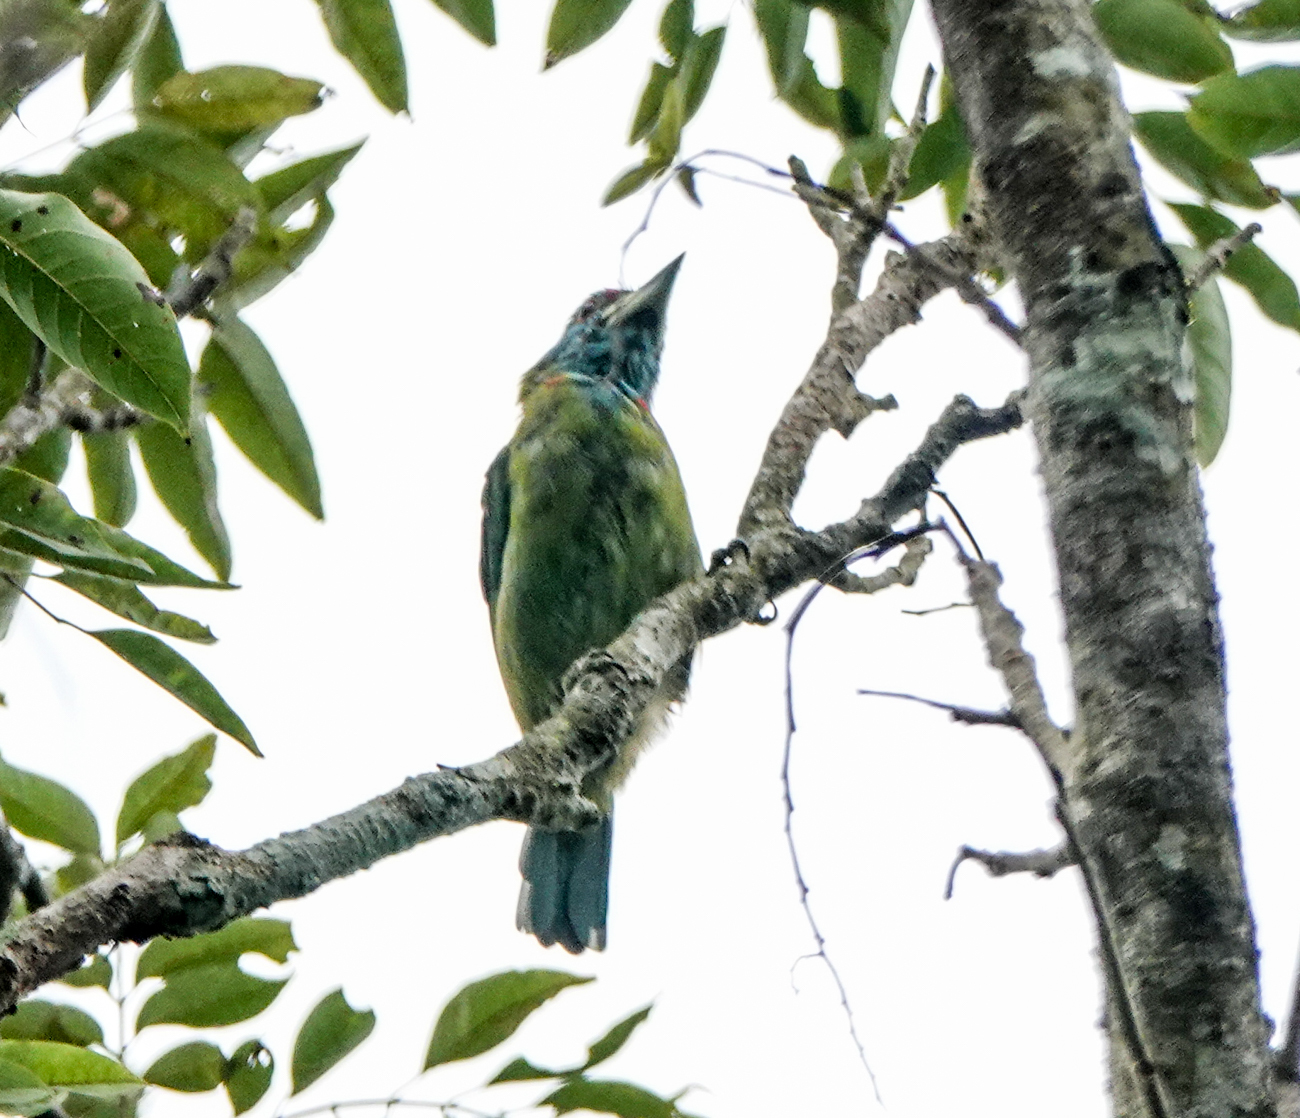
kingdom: Animalia
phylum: Chordata
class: Aves
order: Piciformes
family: Megalaimidae
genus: Psilopogon
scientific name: Psilopogon duvaucelii
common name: Blue-eared barbet
